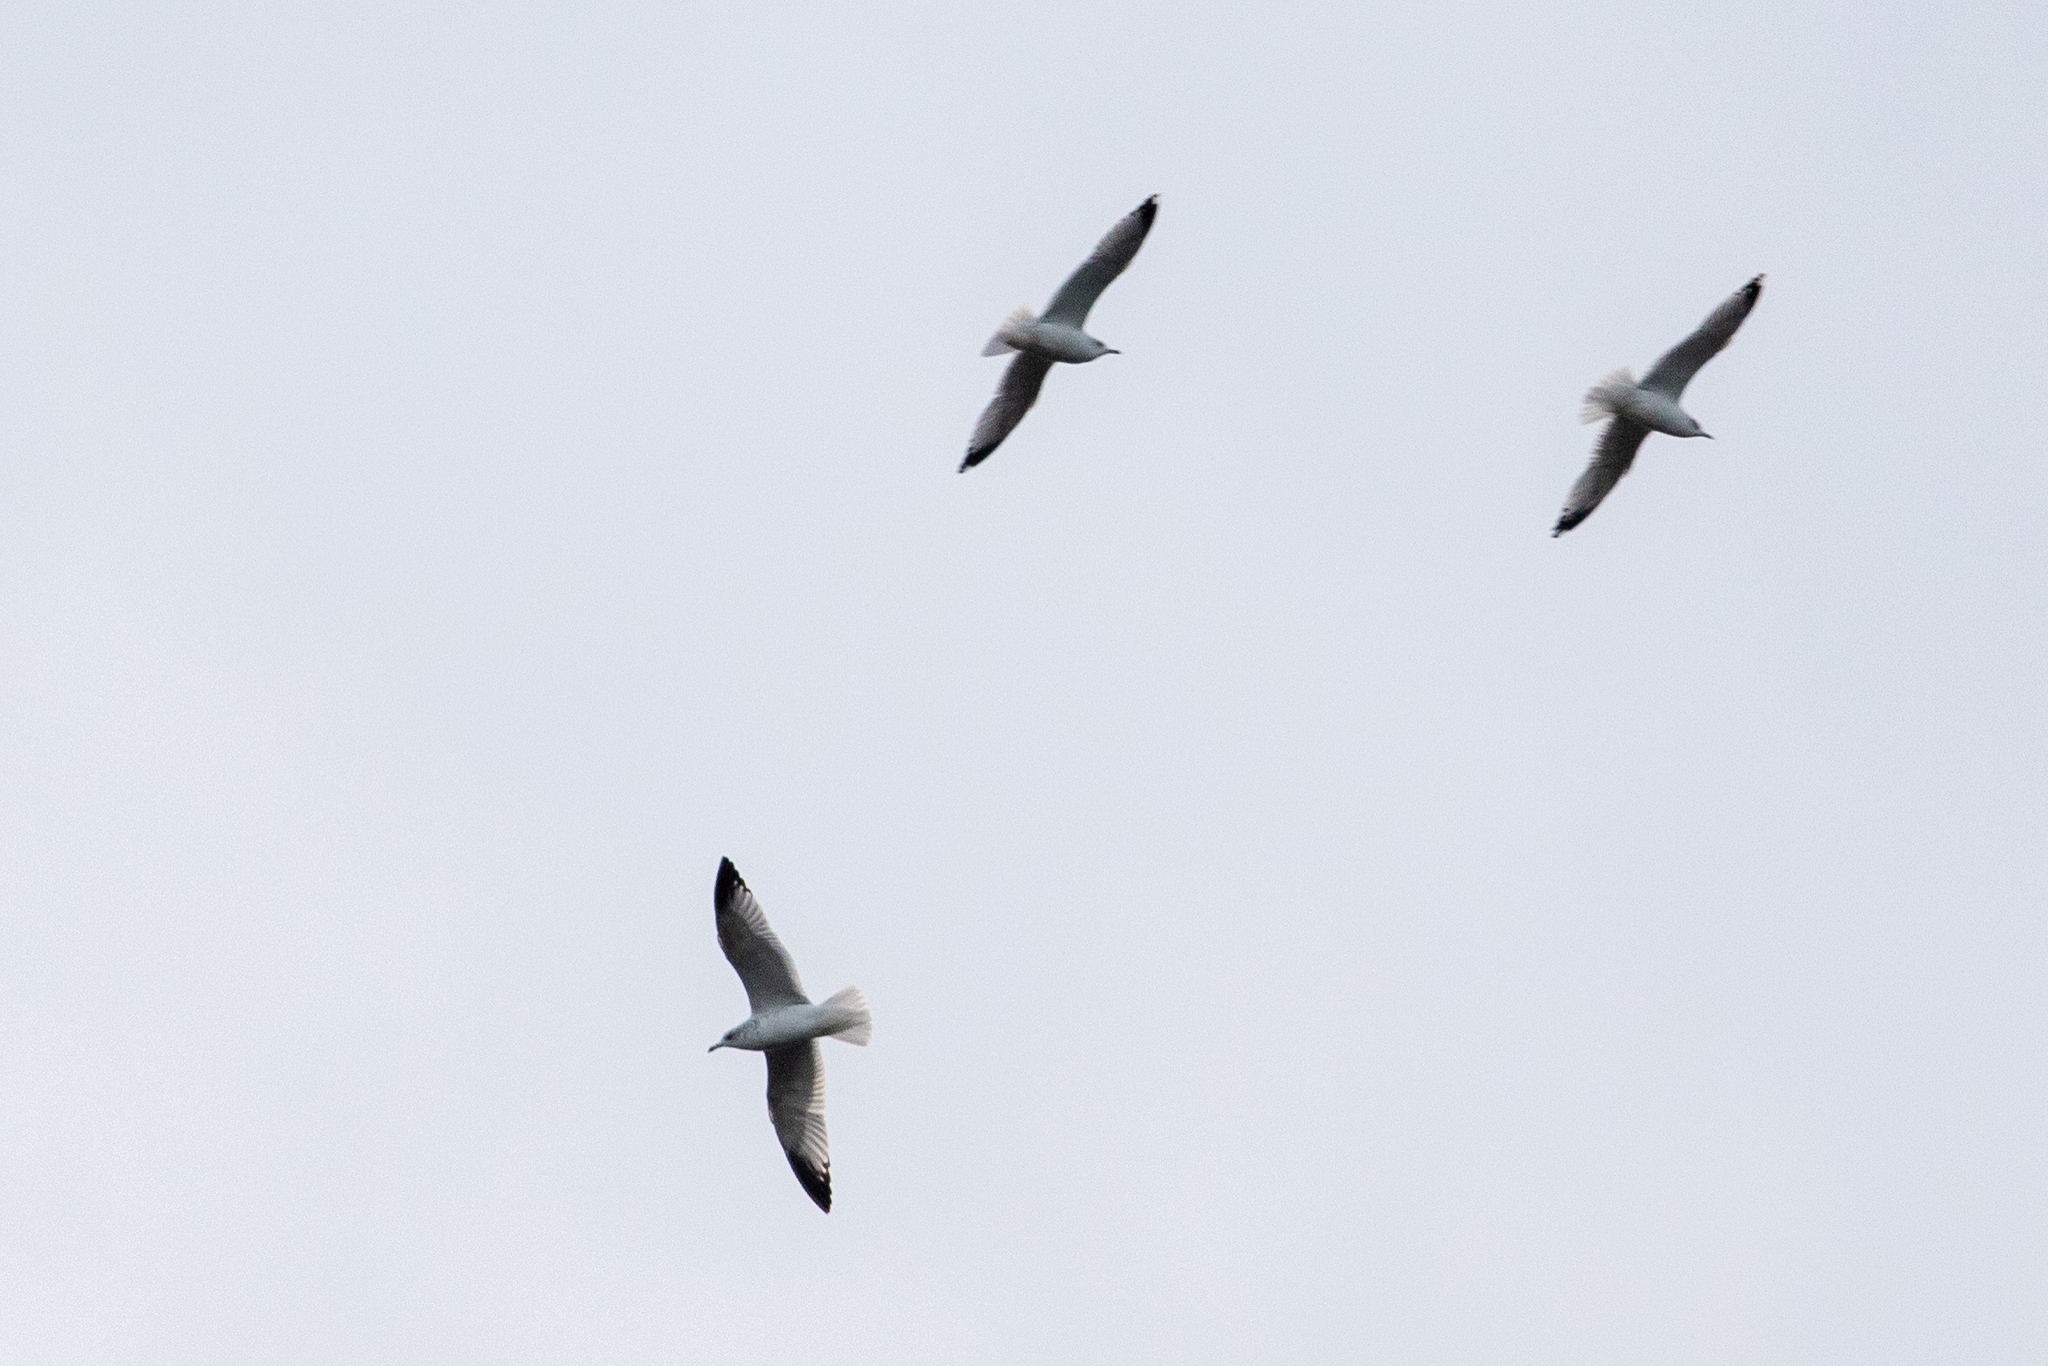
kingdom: Animalia
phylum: Chordata
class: Aves
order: Charadriiformes
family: Laridae
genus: Larus
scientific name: Larus delawarensis
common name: Ring-billed gull
